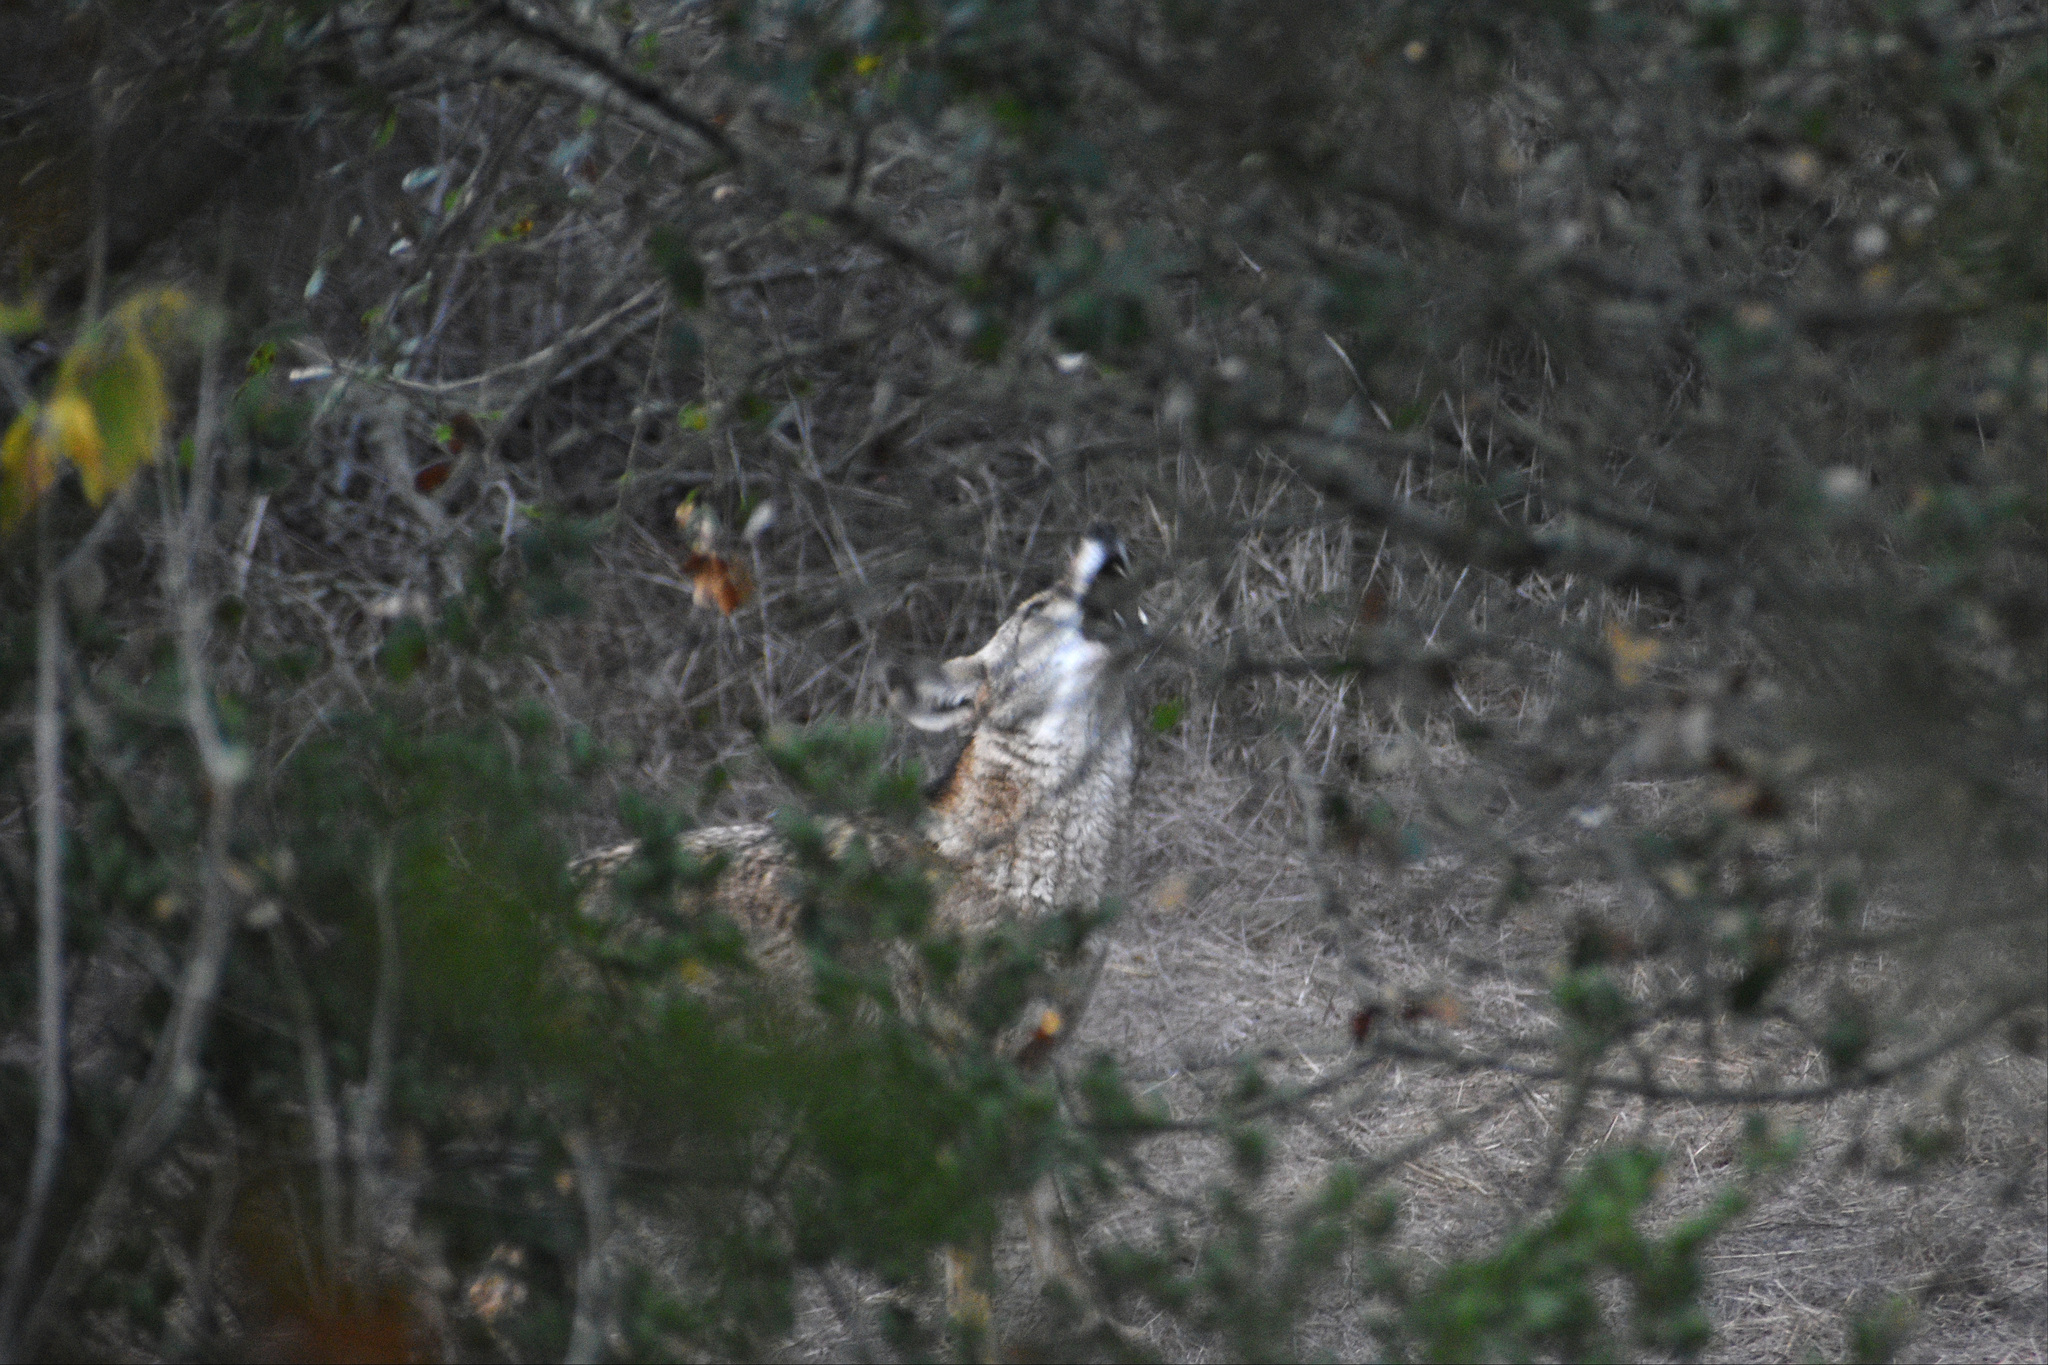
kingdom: Animalia
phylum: Chordata
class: Mammalia
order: Carnivora
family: Canidae
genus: Canis
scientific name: Canis latrans
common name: Coyote
